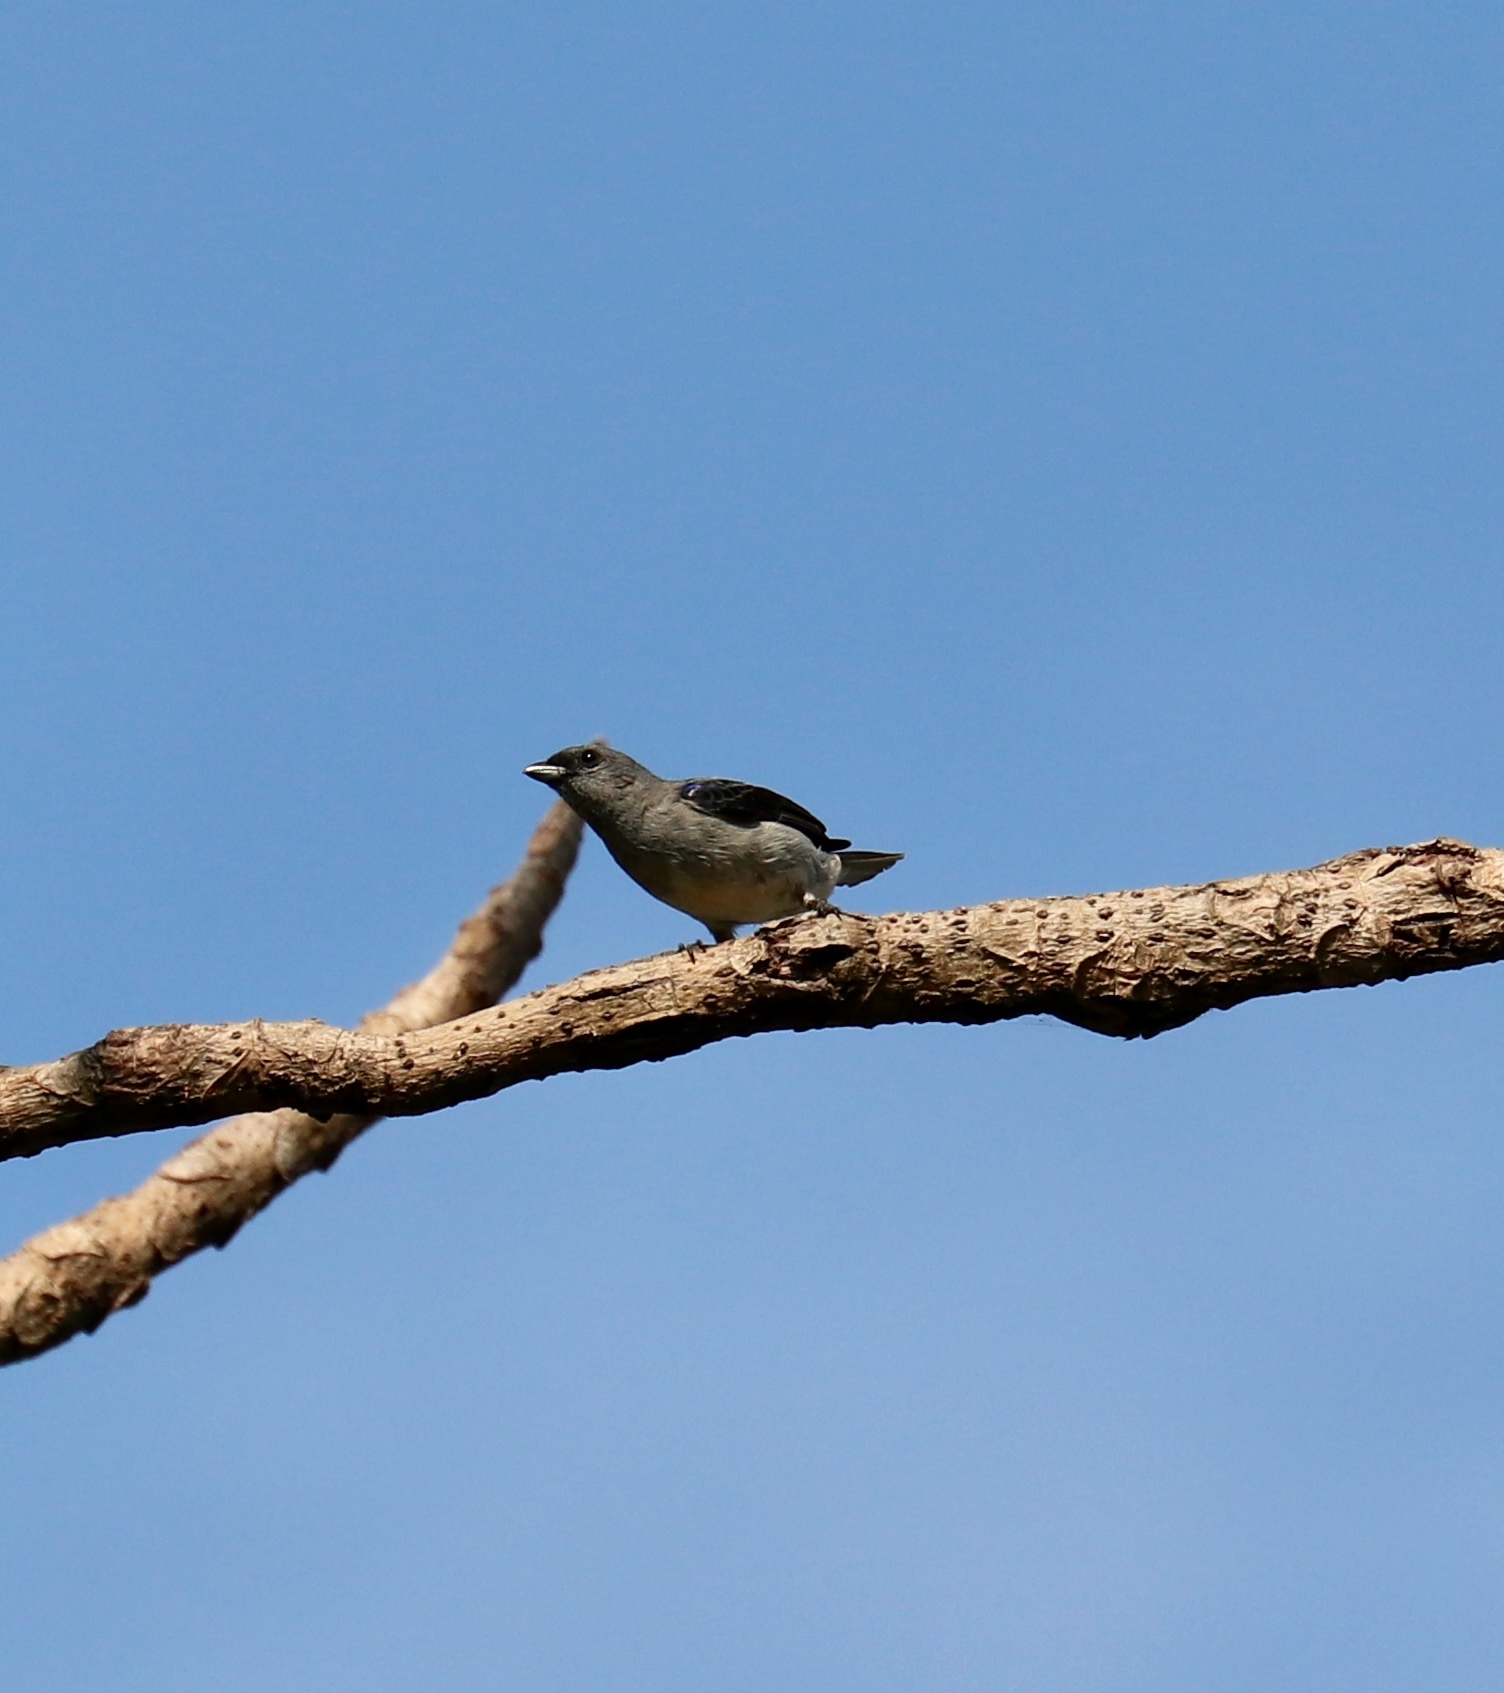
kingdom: Animalia
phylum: Chordata
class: Aves
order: Passeriformes
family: Thraupidae
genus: Tangara
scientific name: Tangara inornata
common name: Plain-colored tanager
